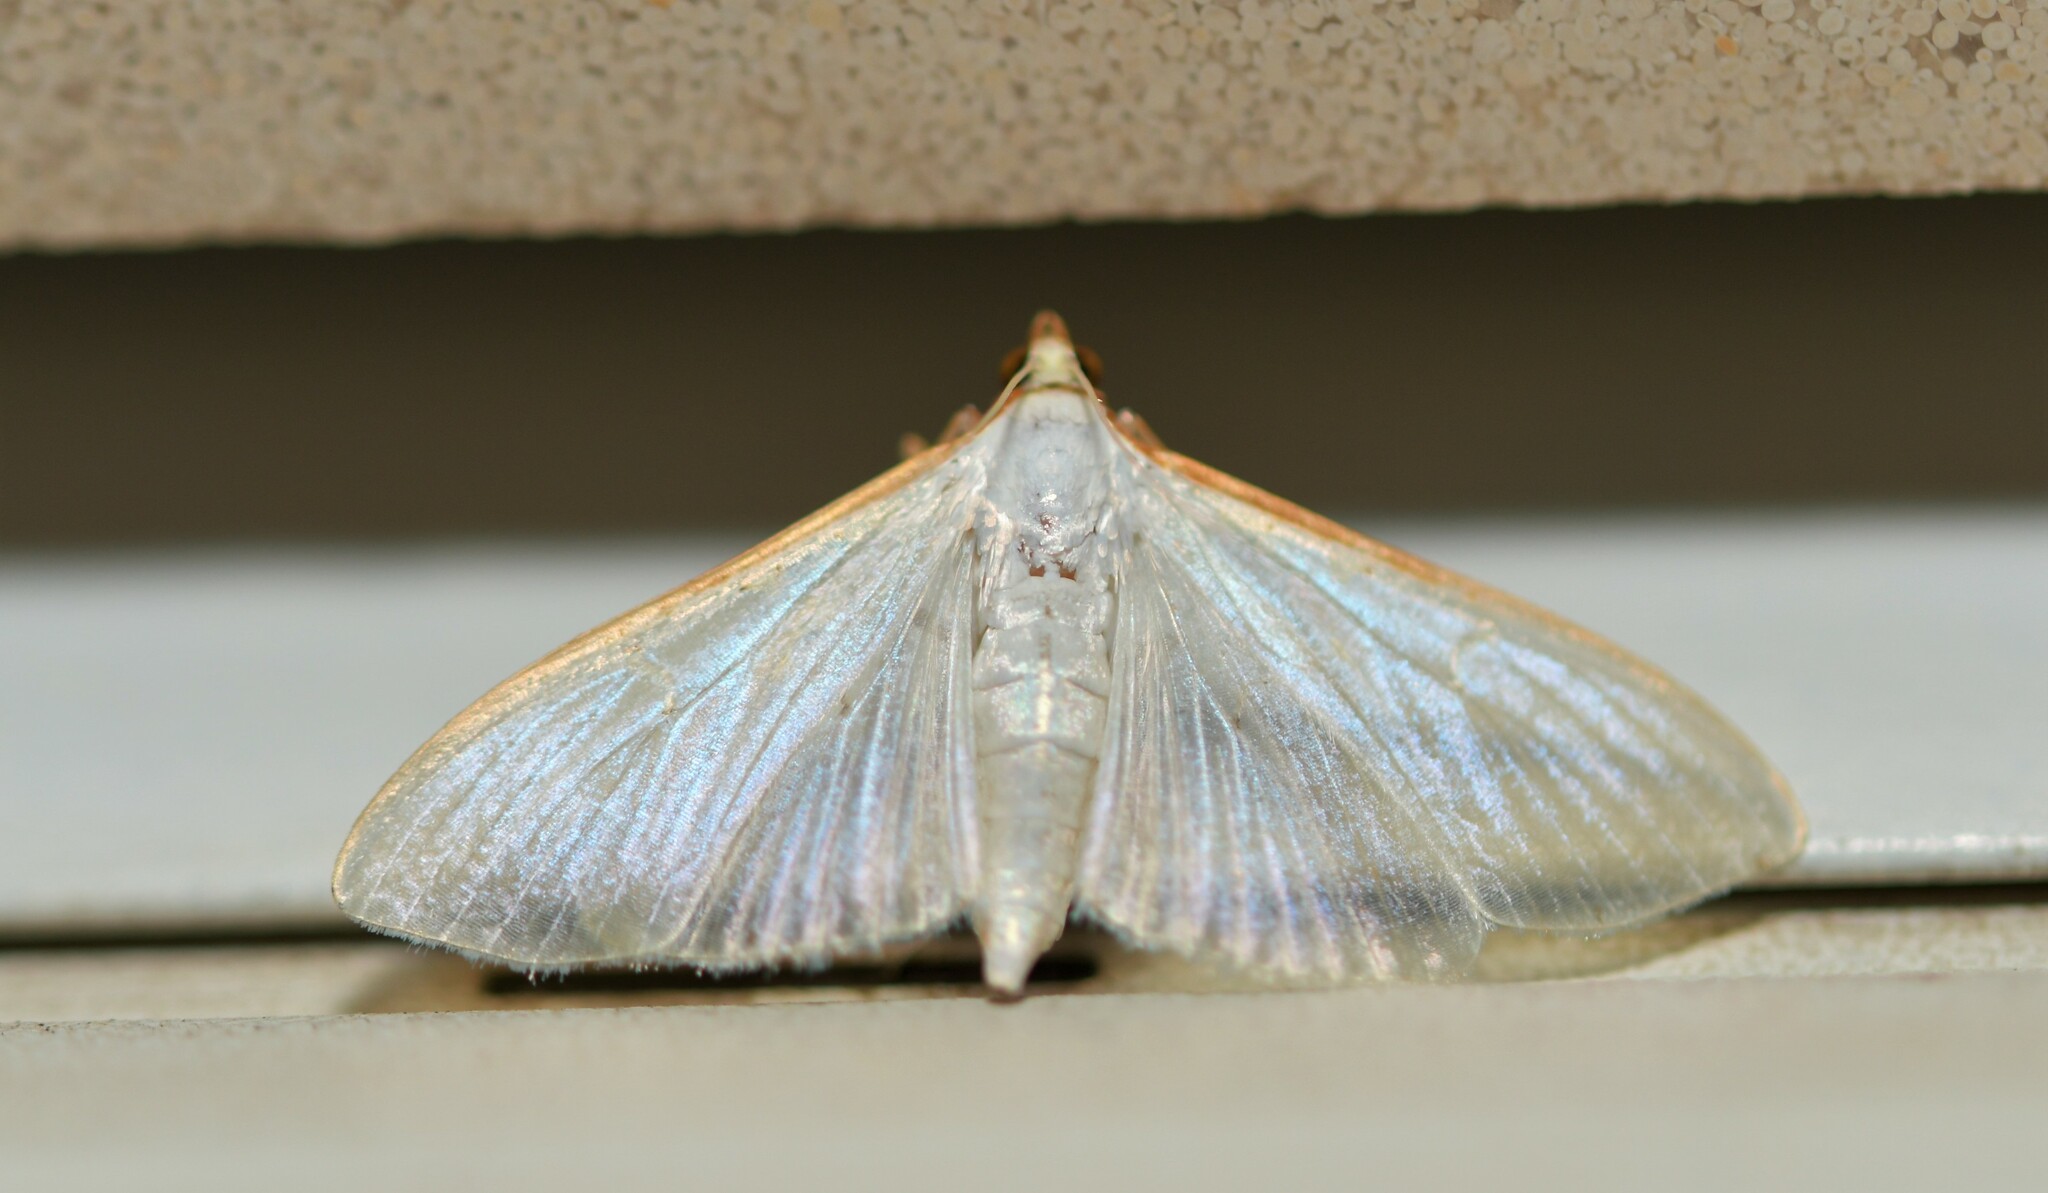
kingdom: Animalia
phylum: Arthropoda
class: Insecta
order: Lepidoptera
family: Crambidae
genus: Palpita
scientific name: Palpita vitrealis
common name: Olive-tree pearl
